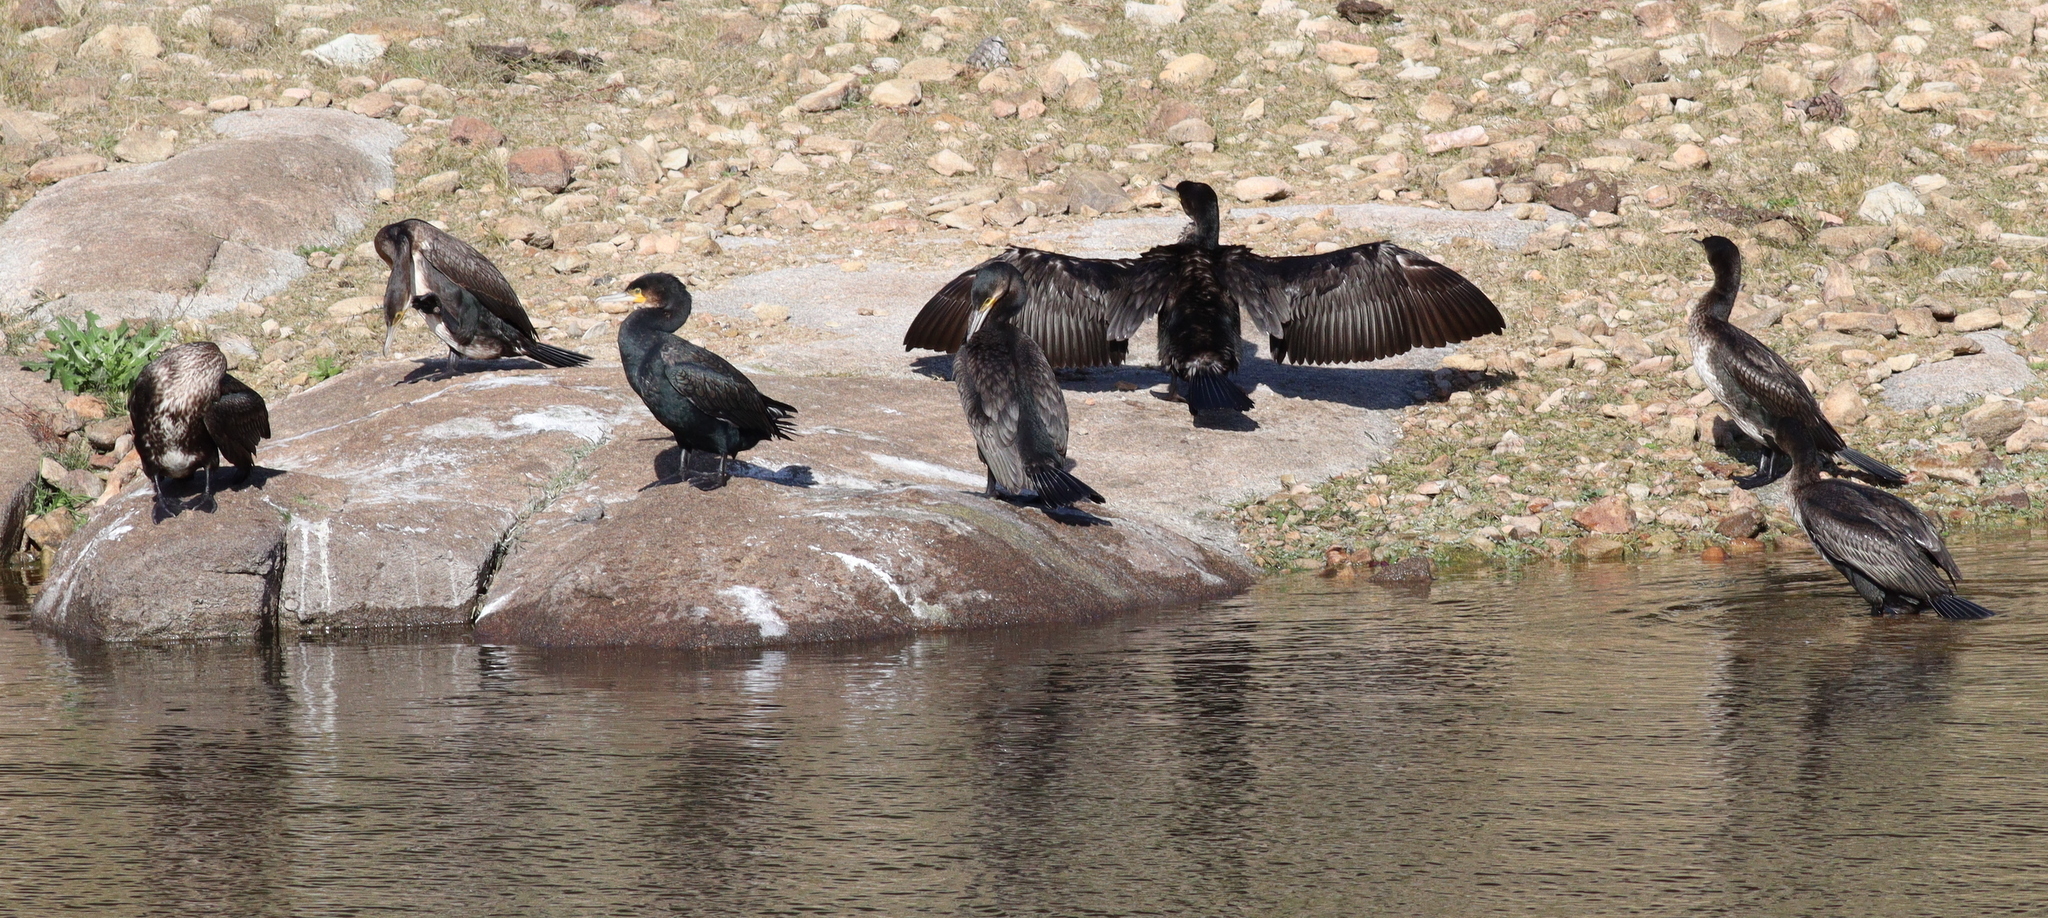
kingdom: Animalia
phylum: Chordata
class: Aves
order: Suliformes
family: Phalacrocoracidae
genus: Phalacrocorax
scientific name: Phalacrocorax carbo
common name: Great cormorant
